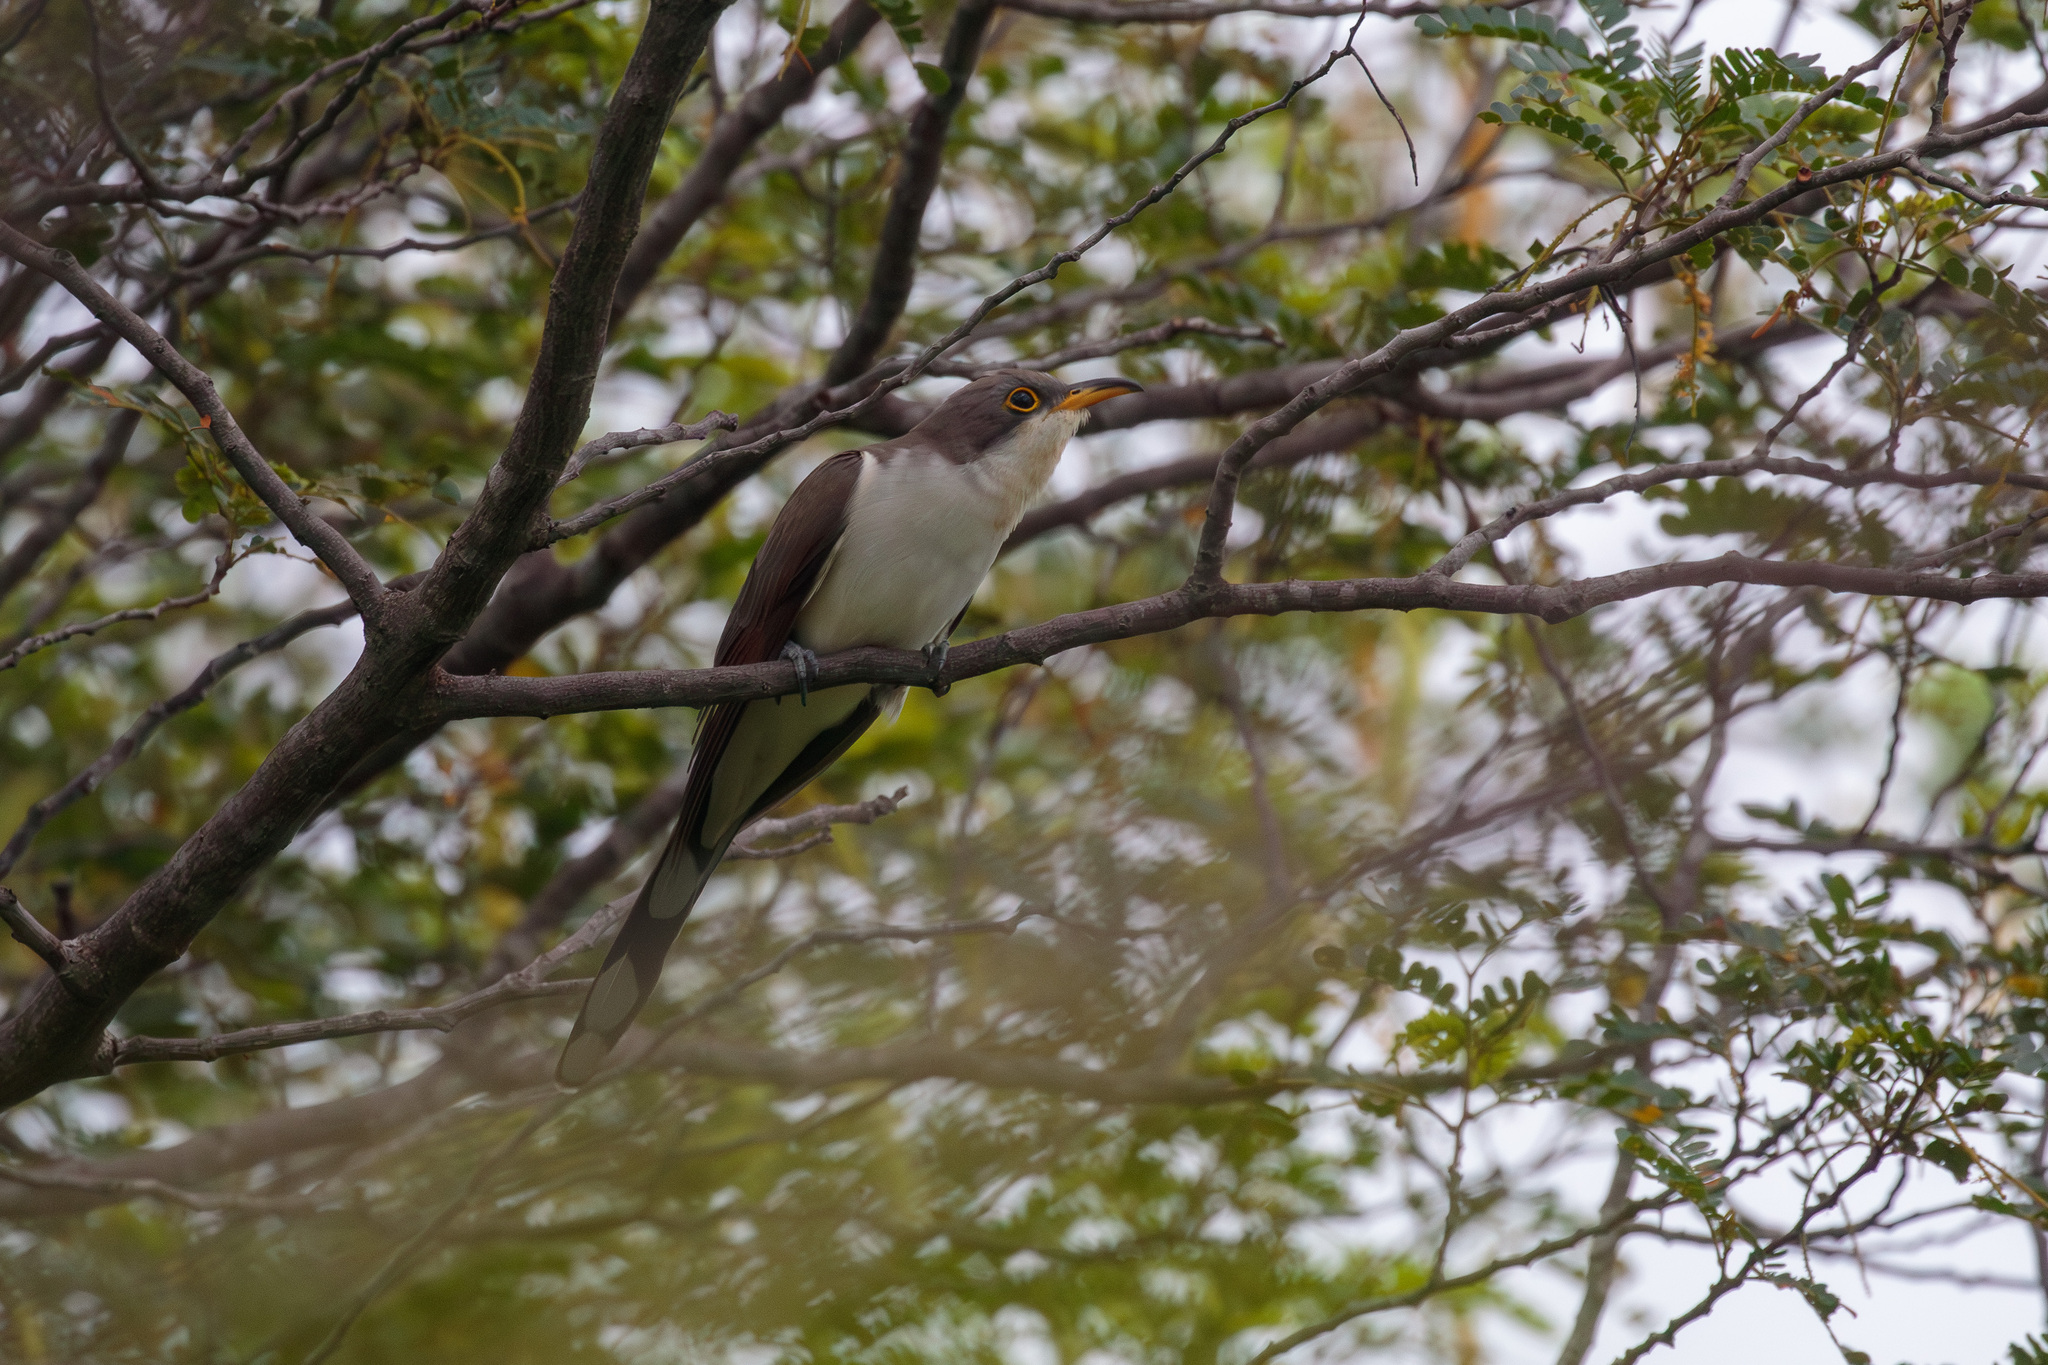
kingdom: Animalia
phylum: Chordata
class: Aves
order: Cuculiformes
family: Cuculidae
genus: Coccyzus
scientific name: Coccyzus americanus
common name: Yellow-billed cuckoo
